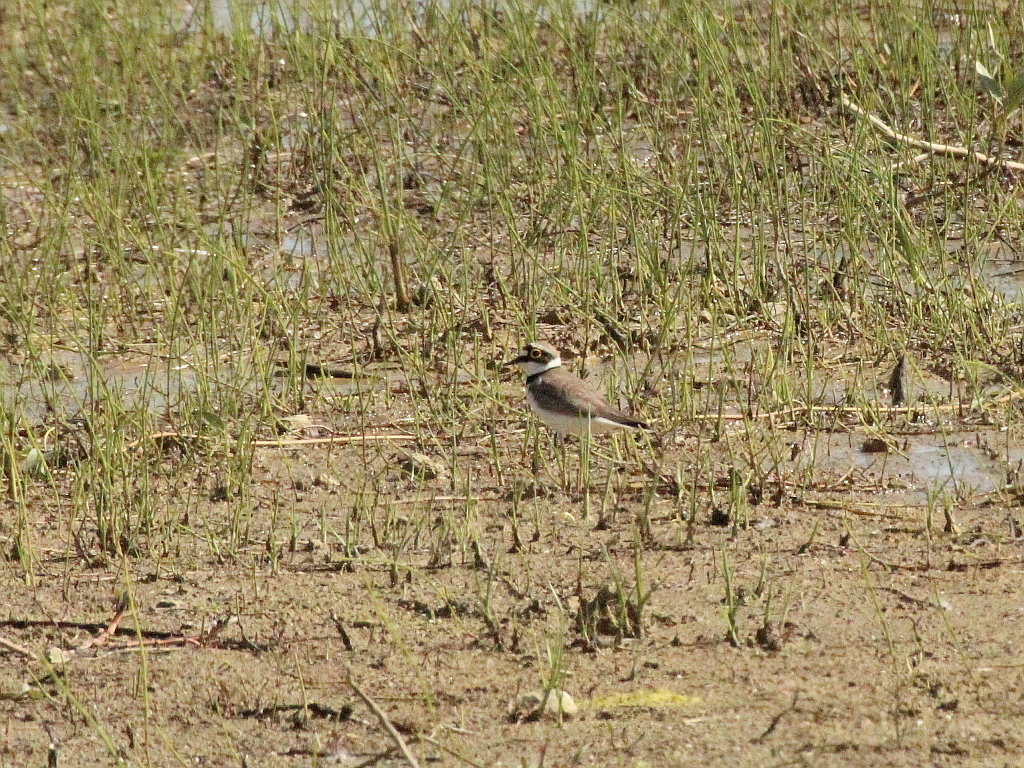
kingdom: Animalia
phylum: Chordata
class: Aves
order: Charadriiformes
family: Charadriidae
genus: Charadrius
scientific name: Charadrius dubius
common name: Little ringed plover
